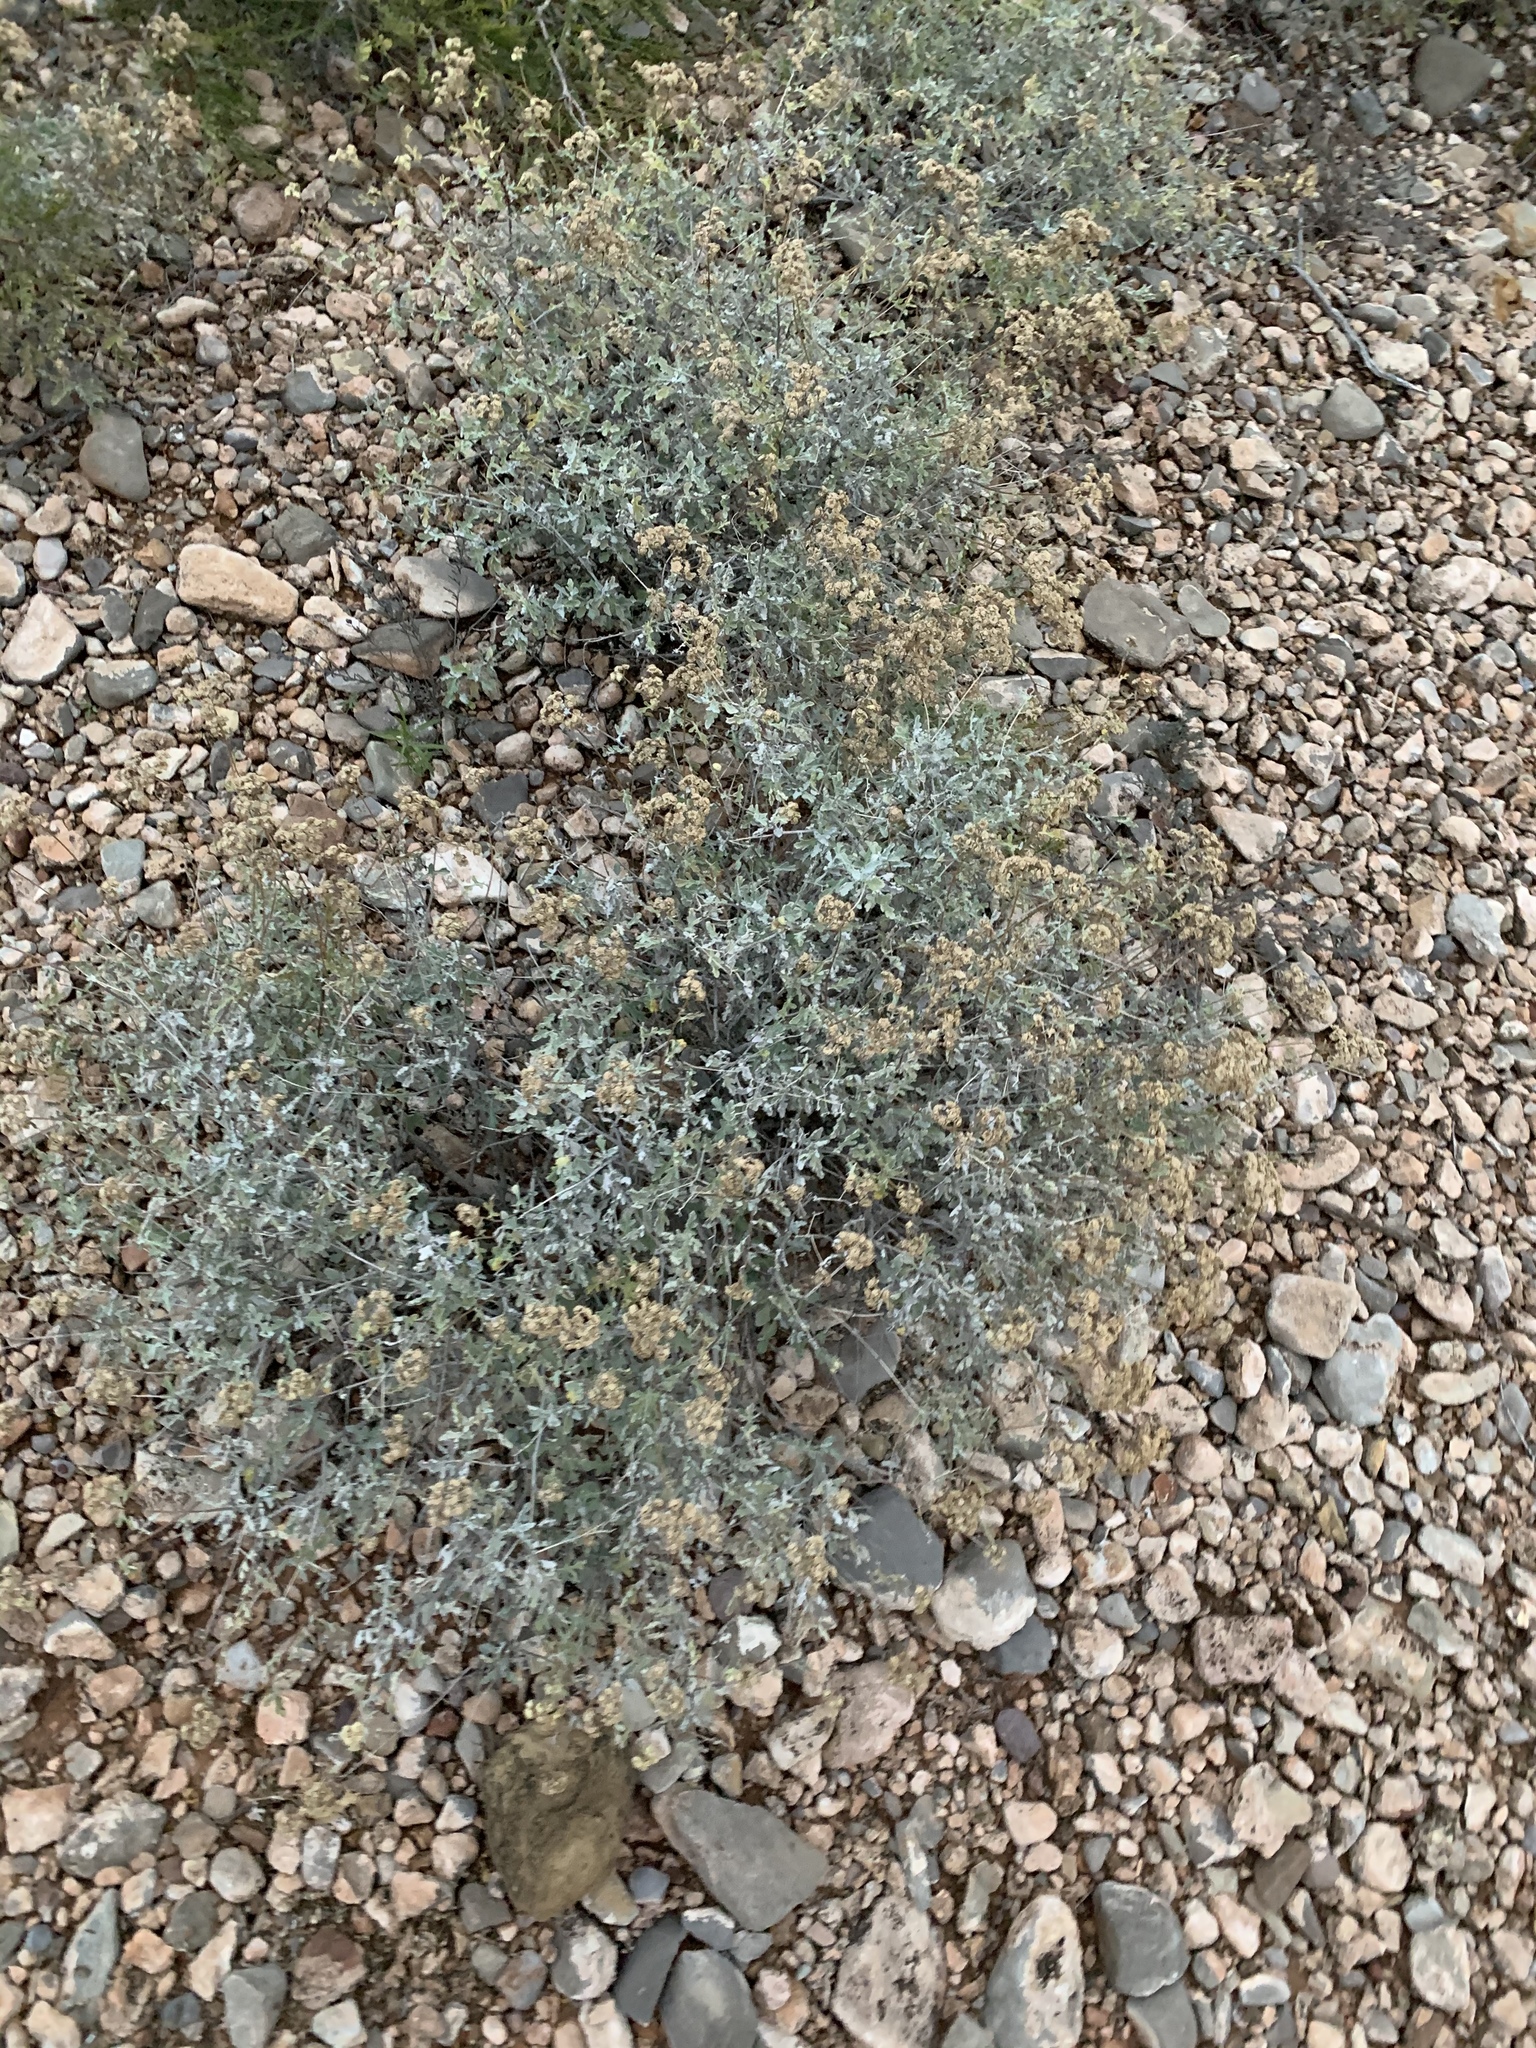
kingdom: Plantae
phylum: Tracheophyta
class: Magnoliopsida
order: Asterales
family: Asteraceae
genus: Parthenium
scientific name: Parthenium incanum
